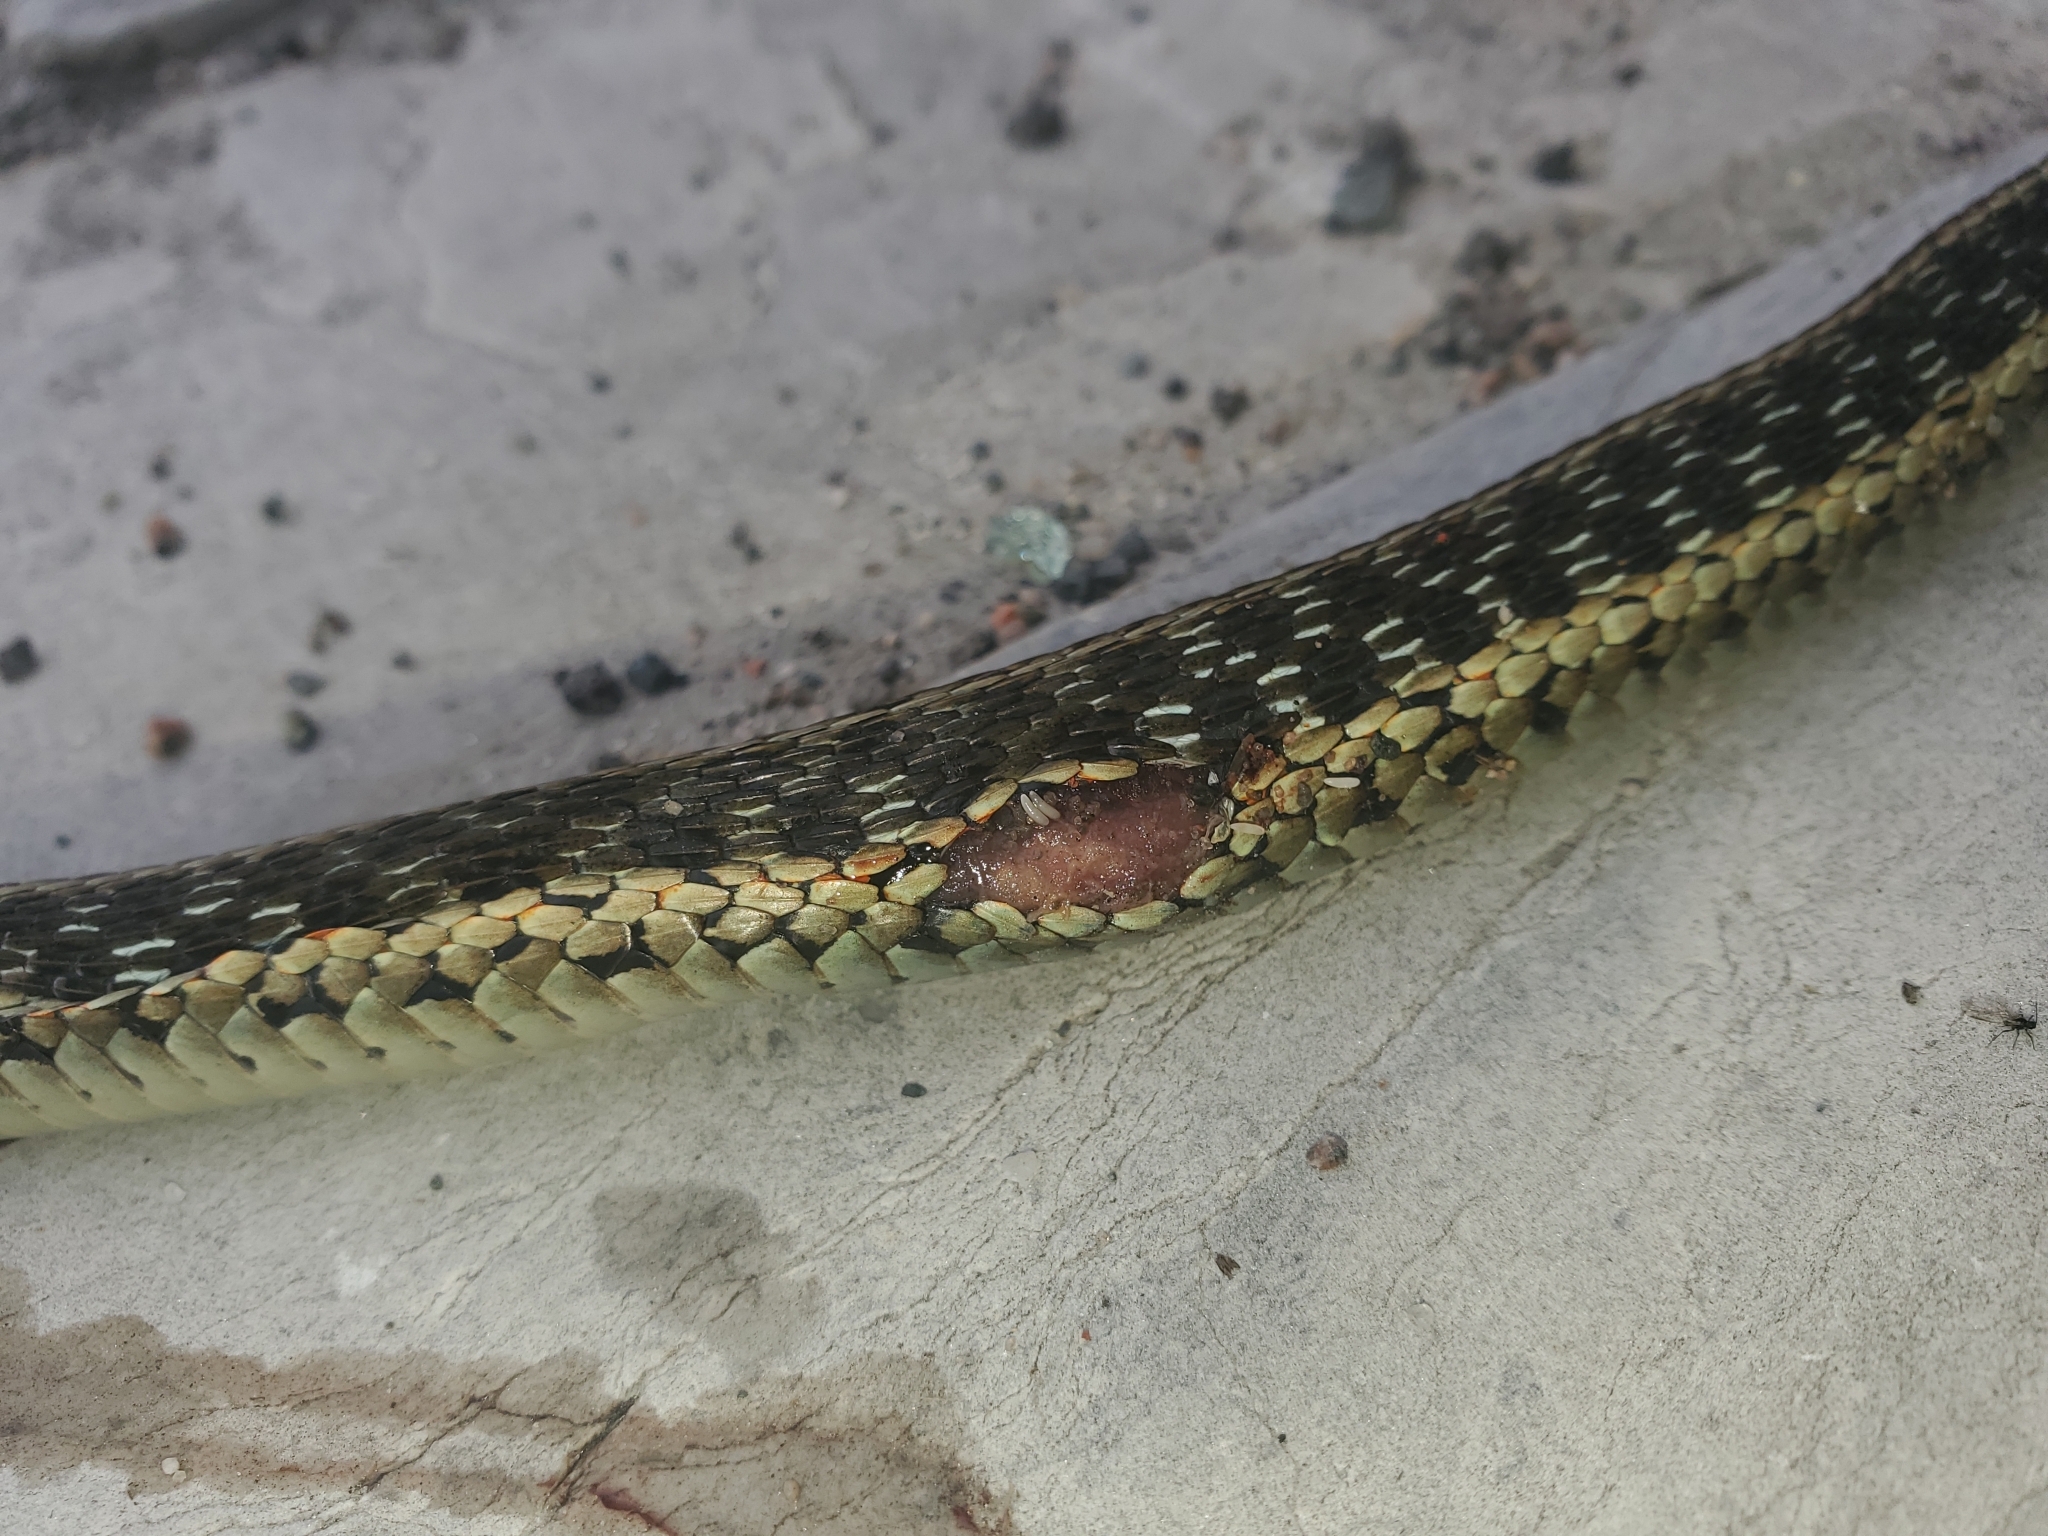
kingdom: Animalia
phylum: Chordata
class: Squamata
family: Colubridae
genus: Thamnophis
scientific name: Thamnophis sirtalis
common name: Common garter snake
